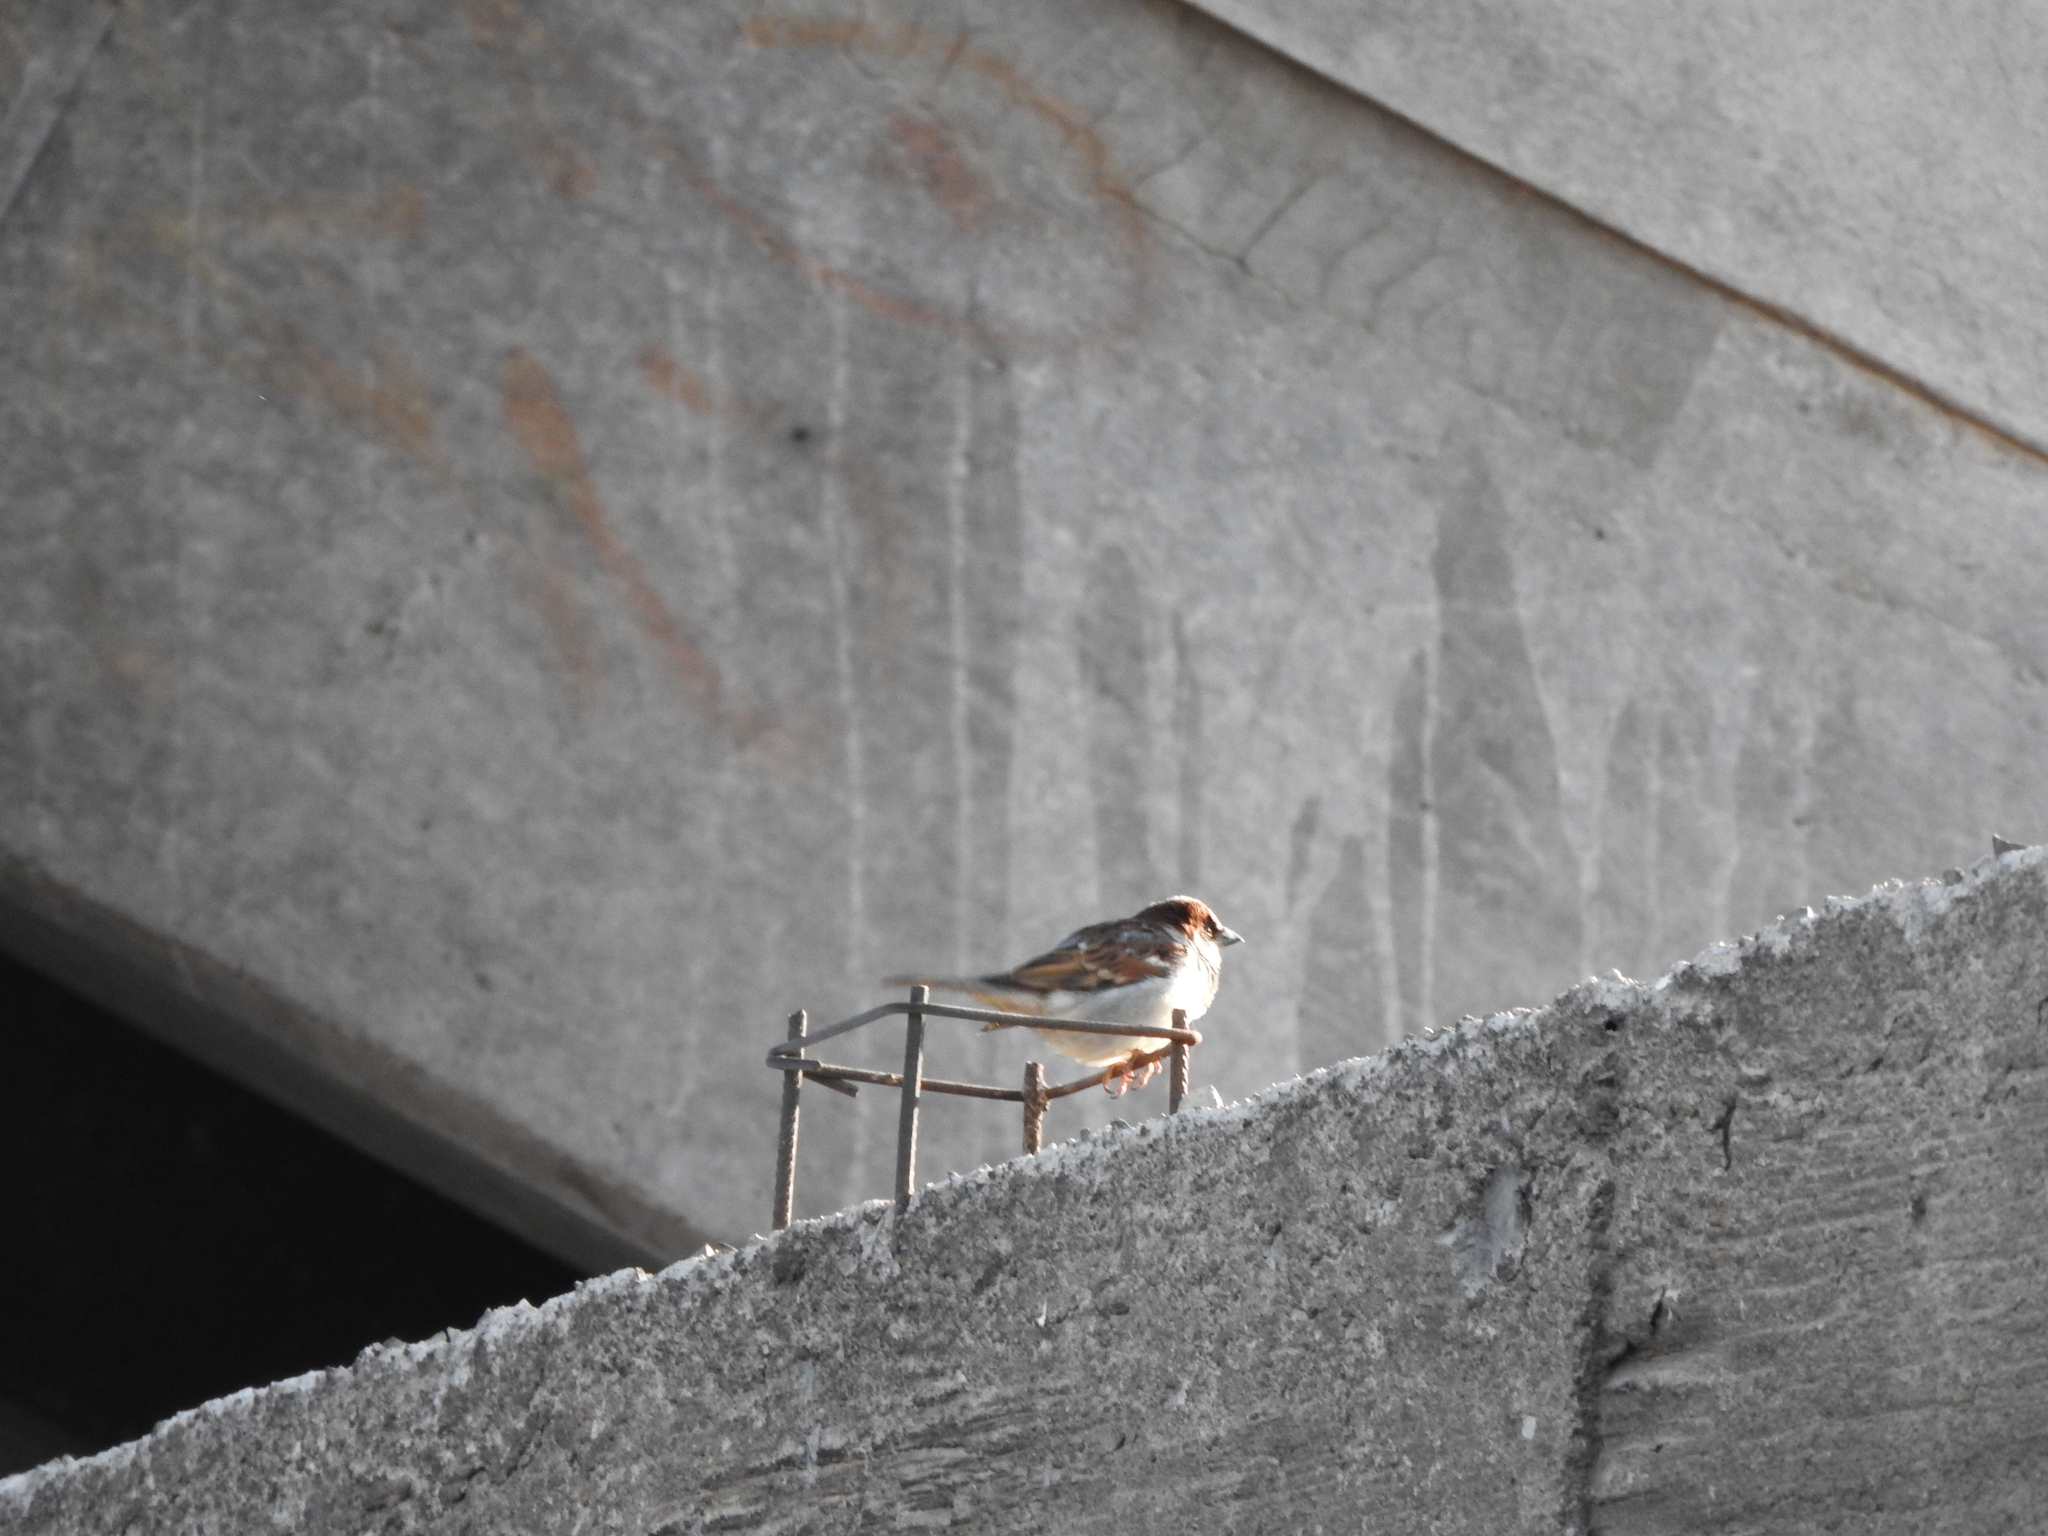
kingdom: Animalia
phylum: Chordata
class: Aves
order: Passeriformes
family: Passeridae
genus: Passer
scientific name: Passer domesticus
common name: House sparrow
